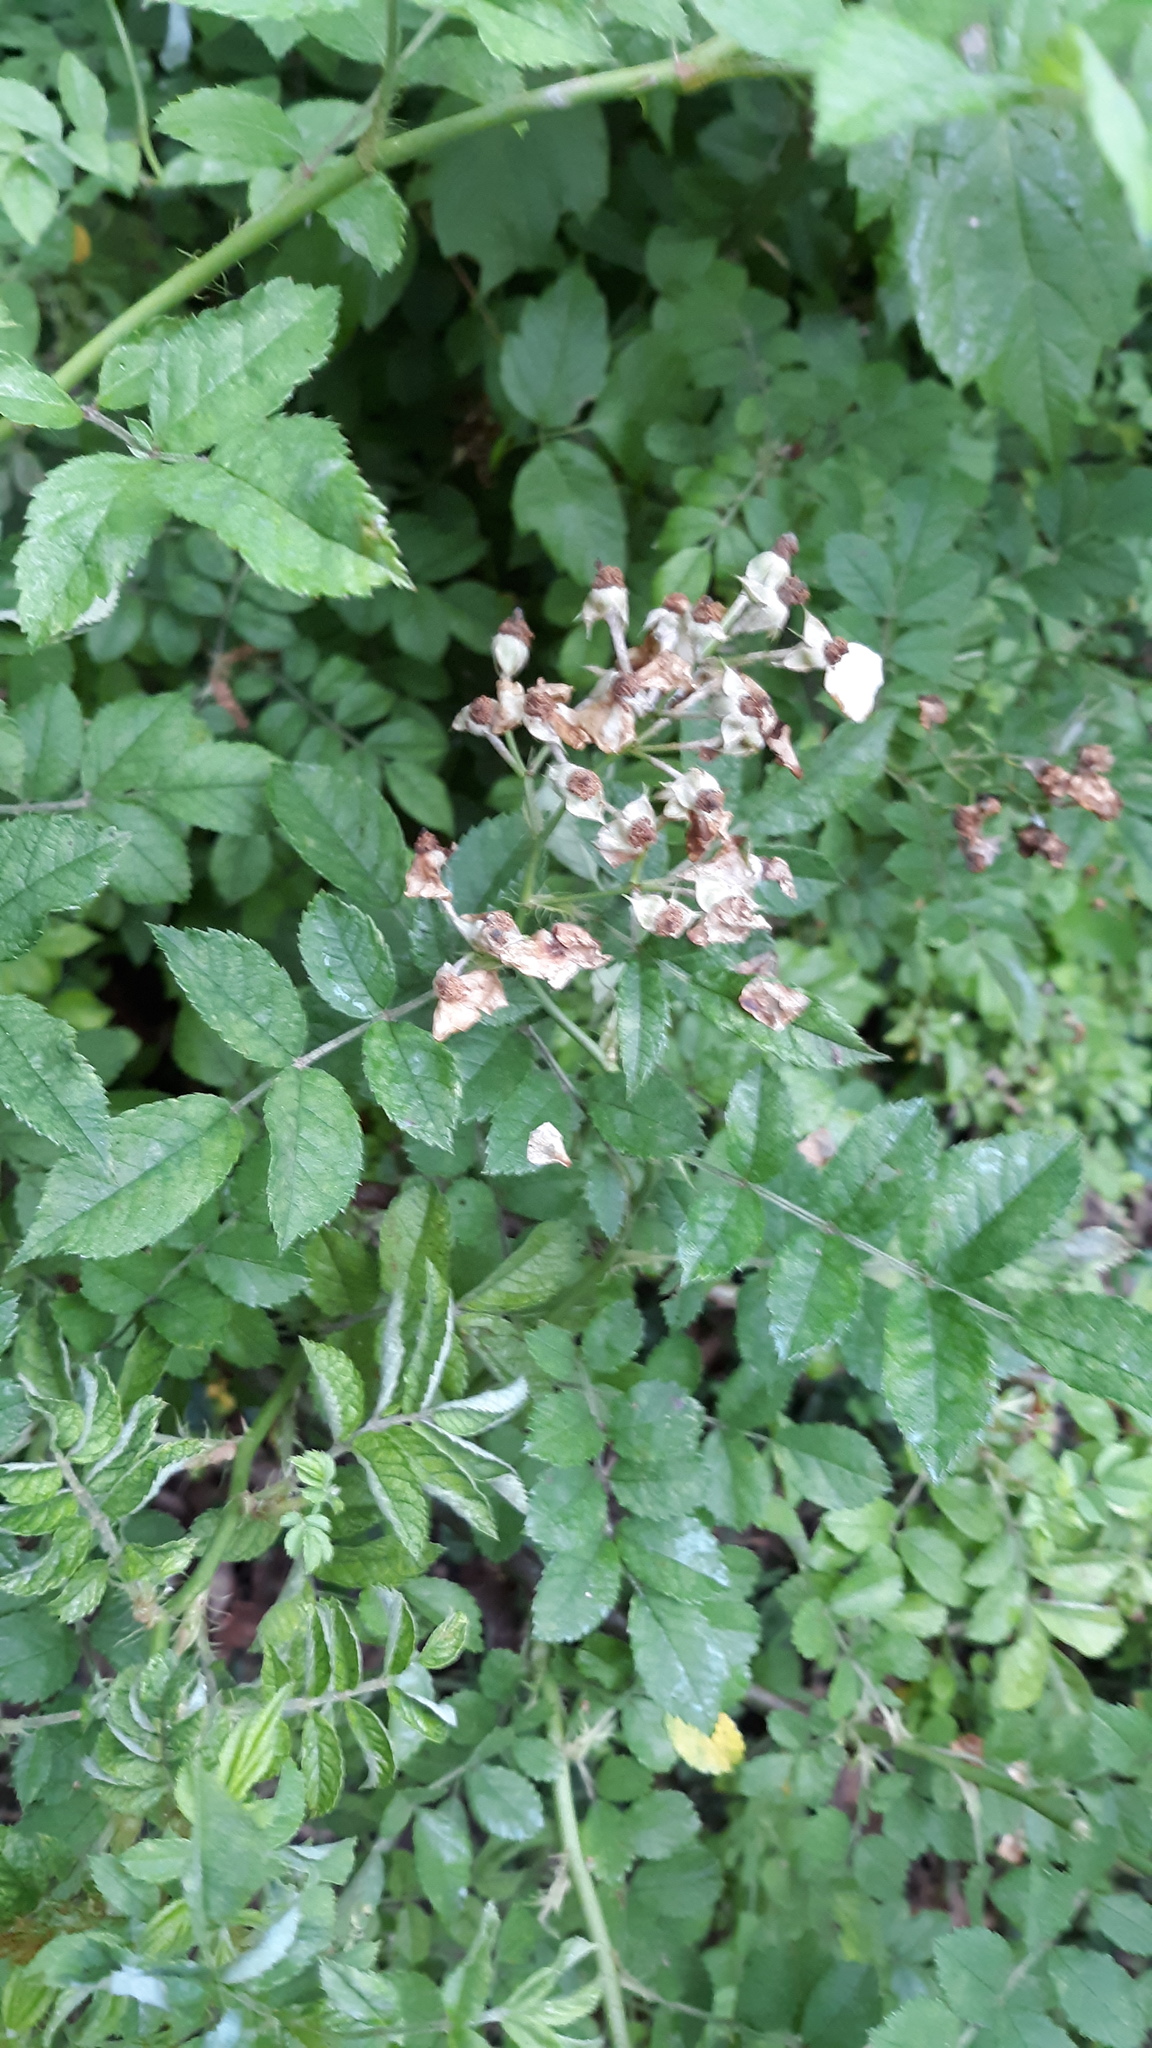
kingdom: Plantae
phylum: Tracheophyta
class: Magnoliopsida
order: Rosales
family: Rosaceae
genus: Rosa
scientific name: Rosa multiflora
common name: Multiflora rose
